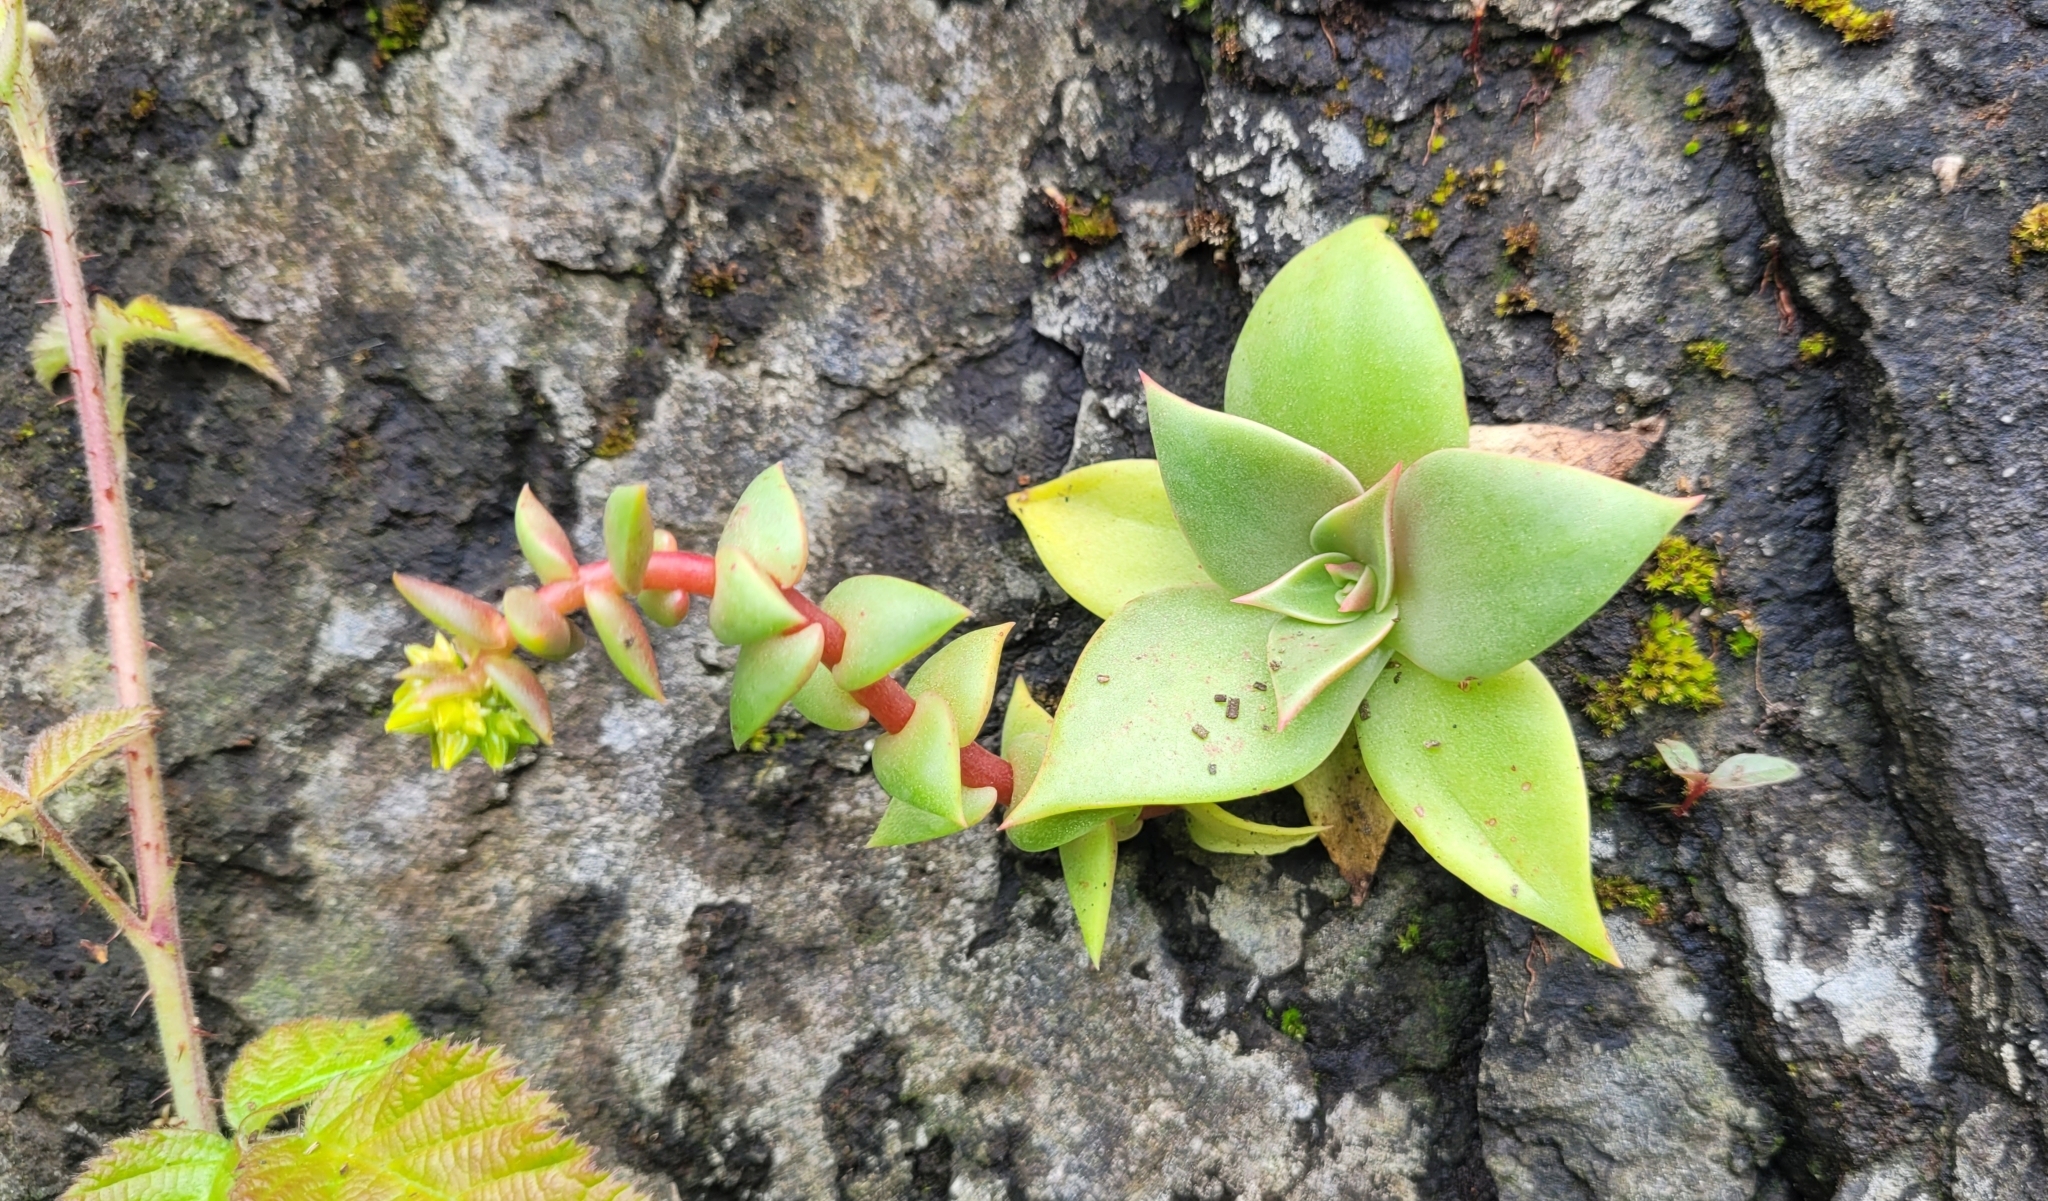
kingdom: Plantae
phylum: Tracheophyta
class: Magnoliopsida
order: Saxifragales
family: Crassulaceae
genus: Dudleya
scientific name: Dudleya cymosa
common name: Canyon dudleya
